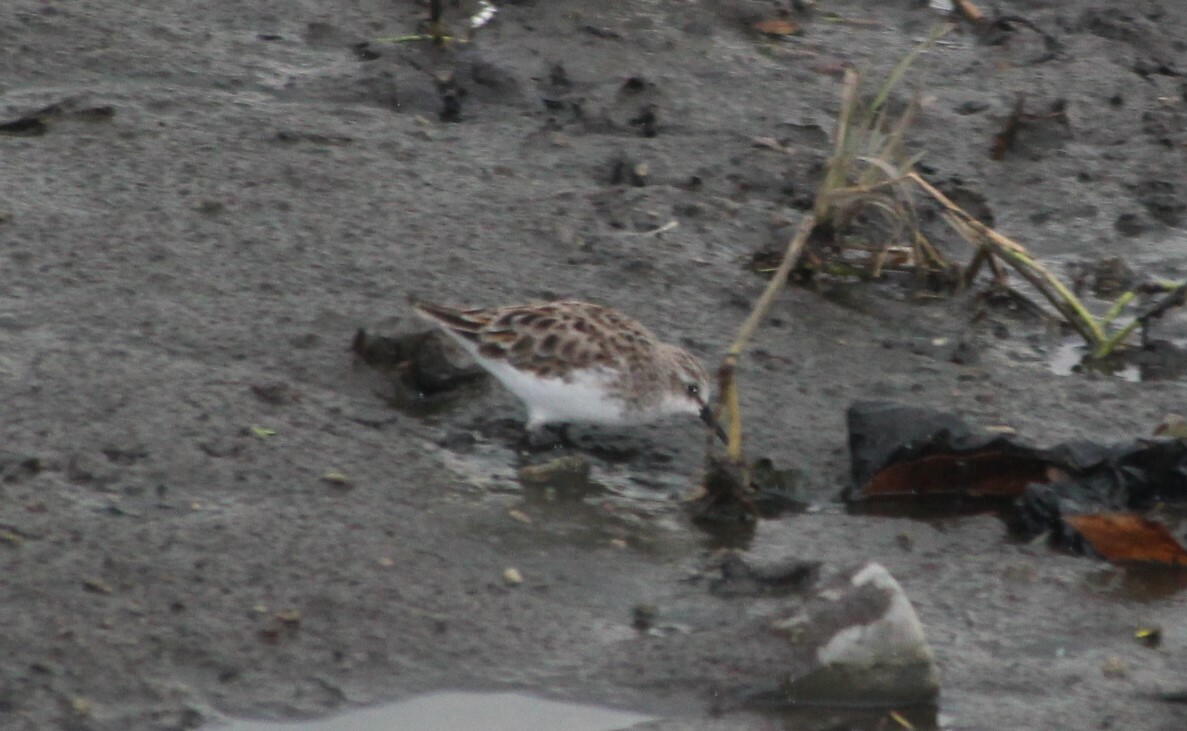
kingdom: Animalia
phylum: Chordata
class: Aves
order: Charadriiformes
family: Scolopacidae
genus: Calidris
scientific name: Calidris ferruginea
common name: Curlew sandpiper
